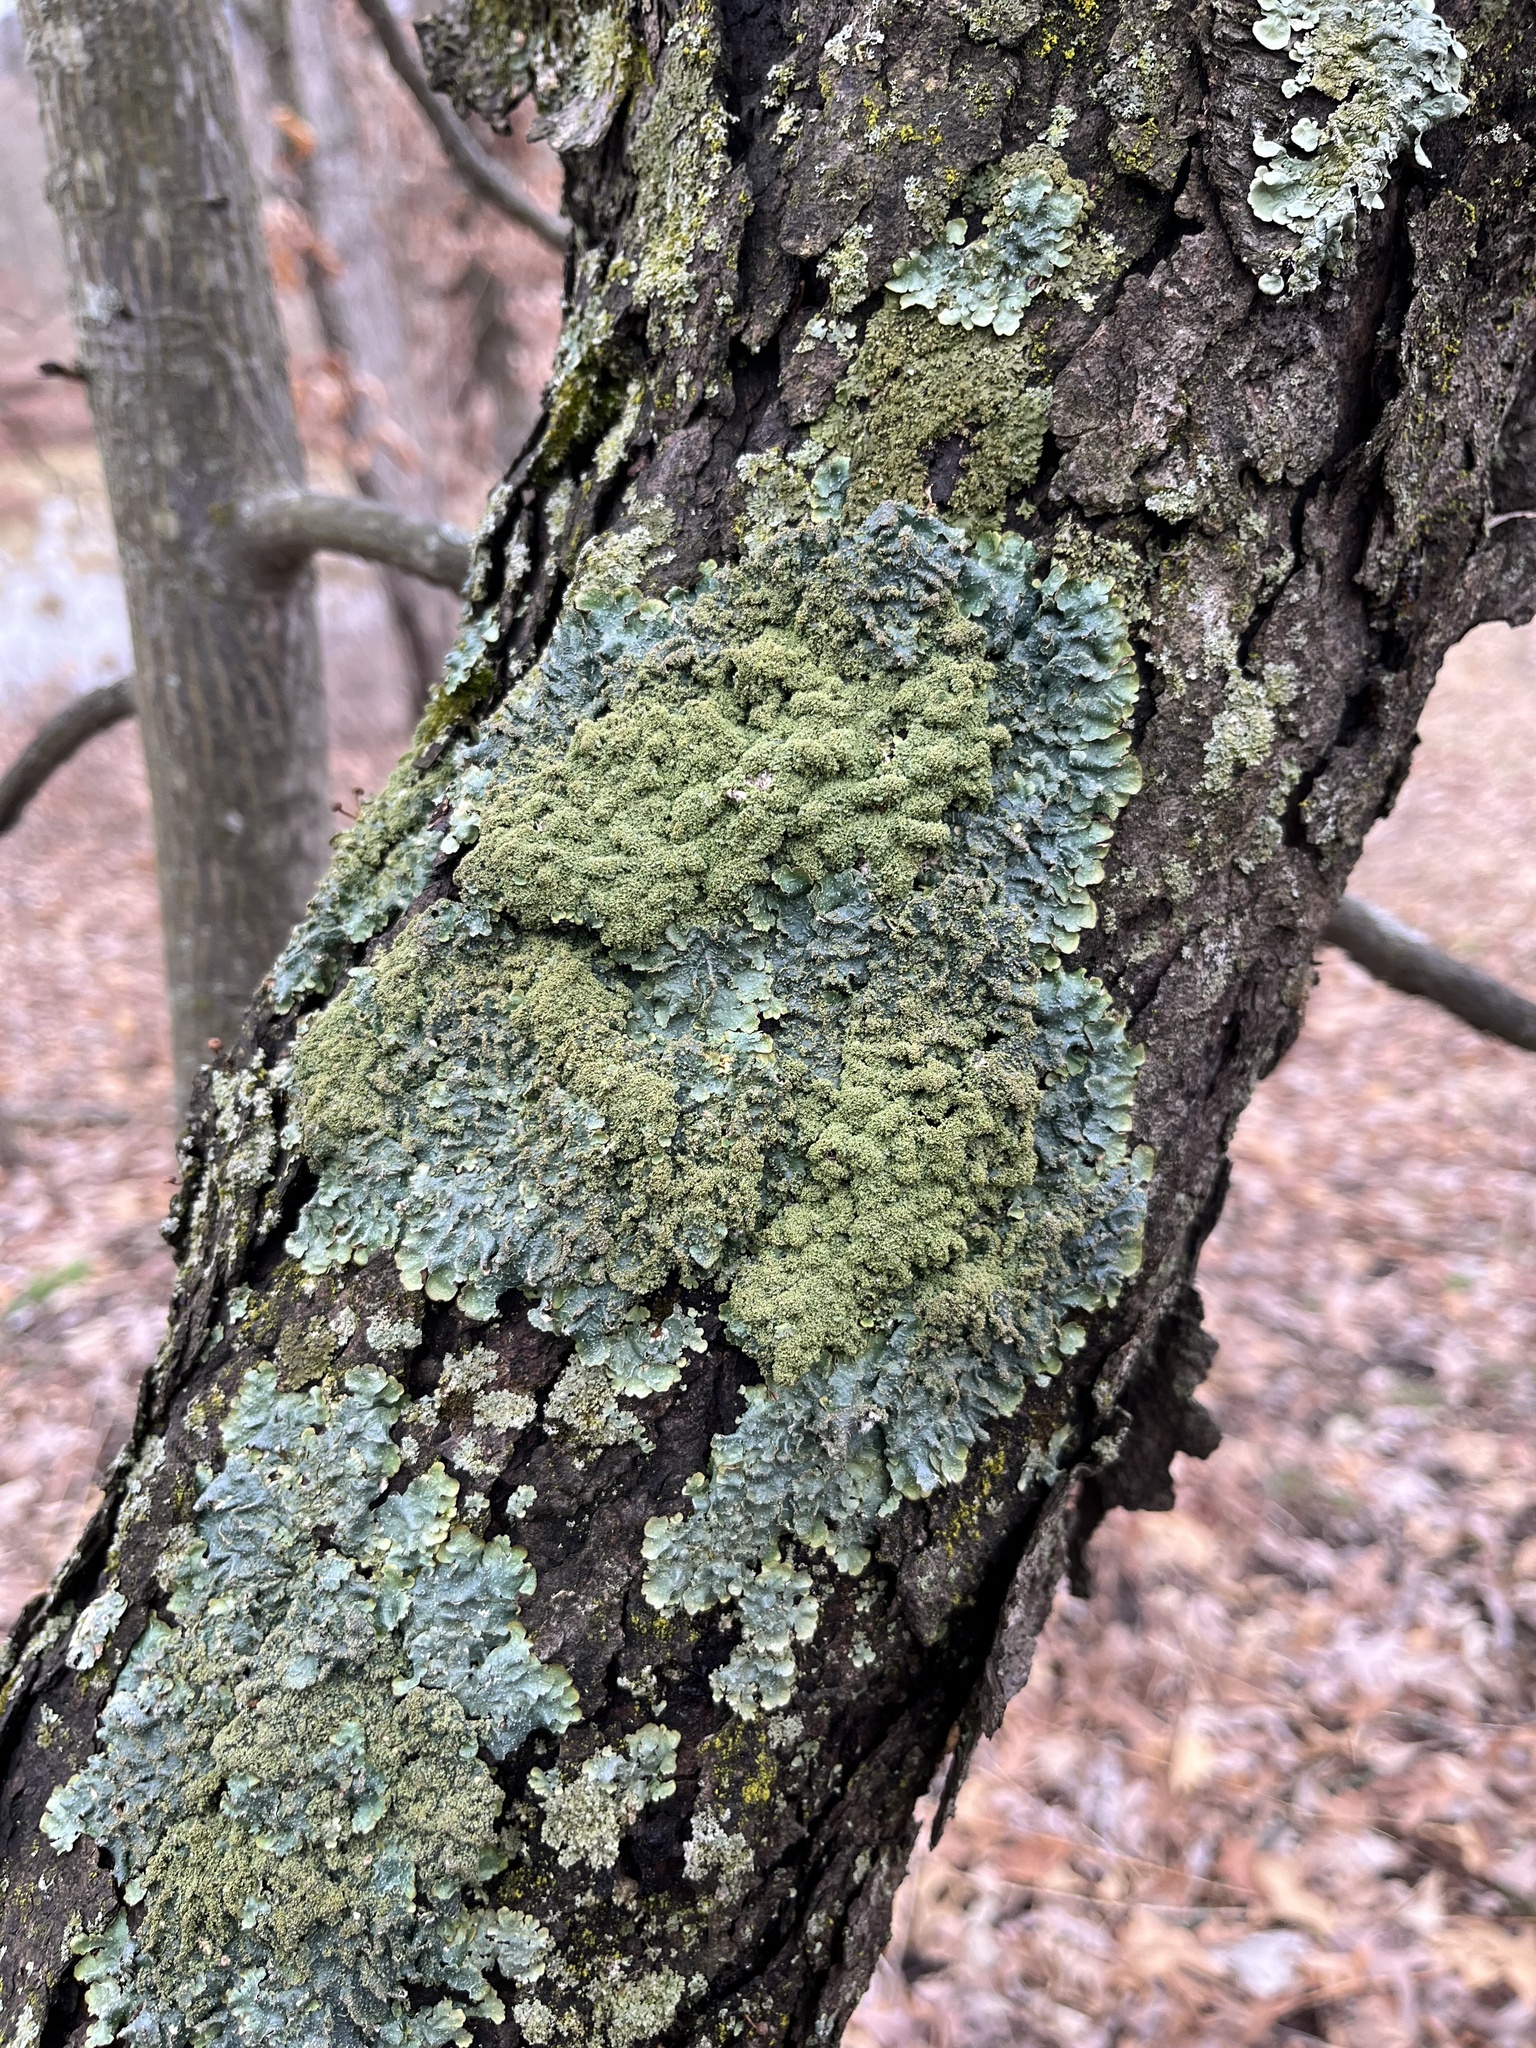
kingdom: Fungi
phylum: Ascomycota
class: Lecanoromycetes
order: Lecanorales
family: Parmeliaceae
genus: Punctelia
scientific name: Punctelia rudecta
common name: Rough speckled shield lichen
